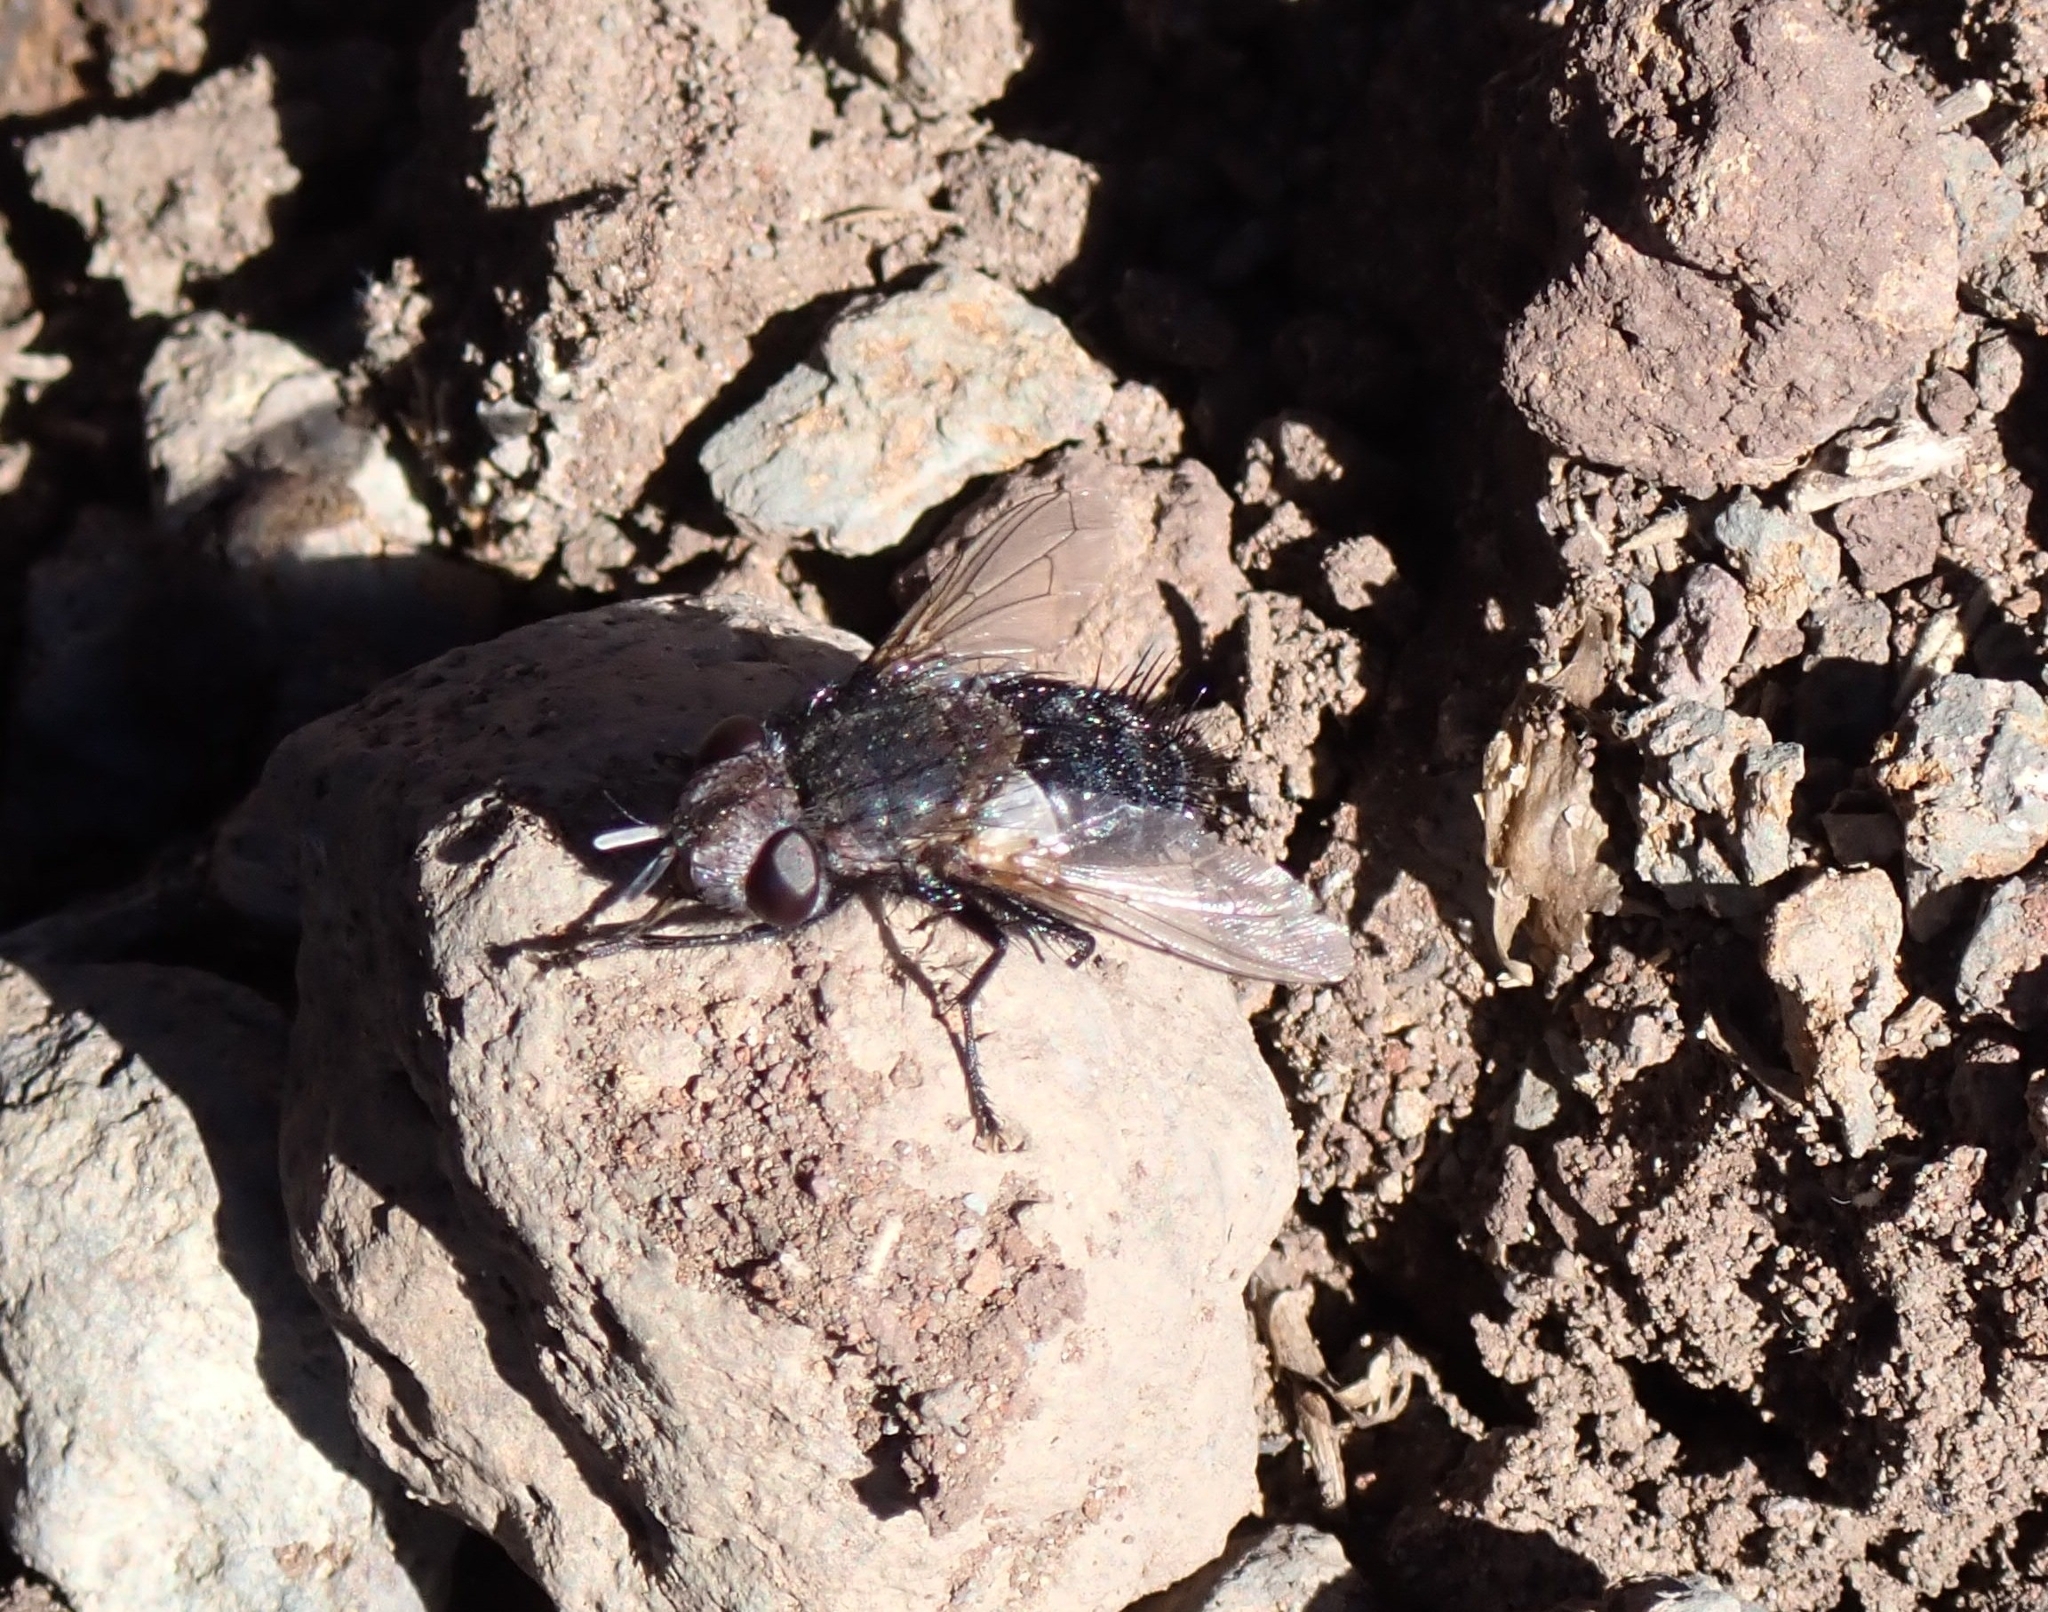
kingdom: Animalia
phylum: Arthropoda
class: Insecta
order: Diptera
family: Tachinidae
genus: Pseudogonia
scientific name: Pseudogonia fasciata
